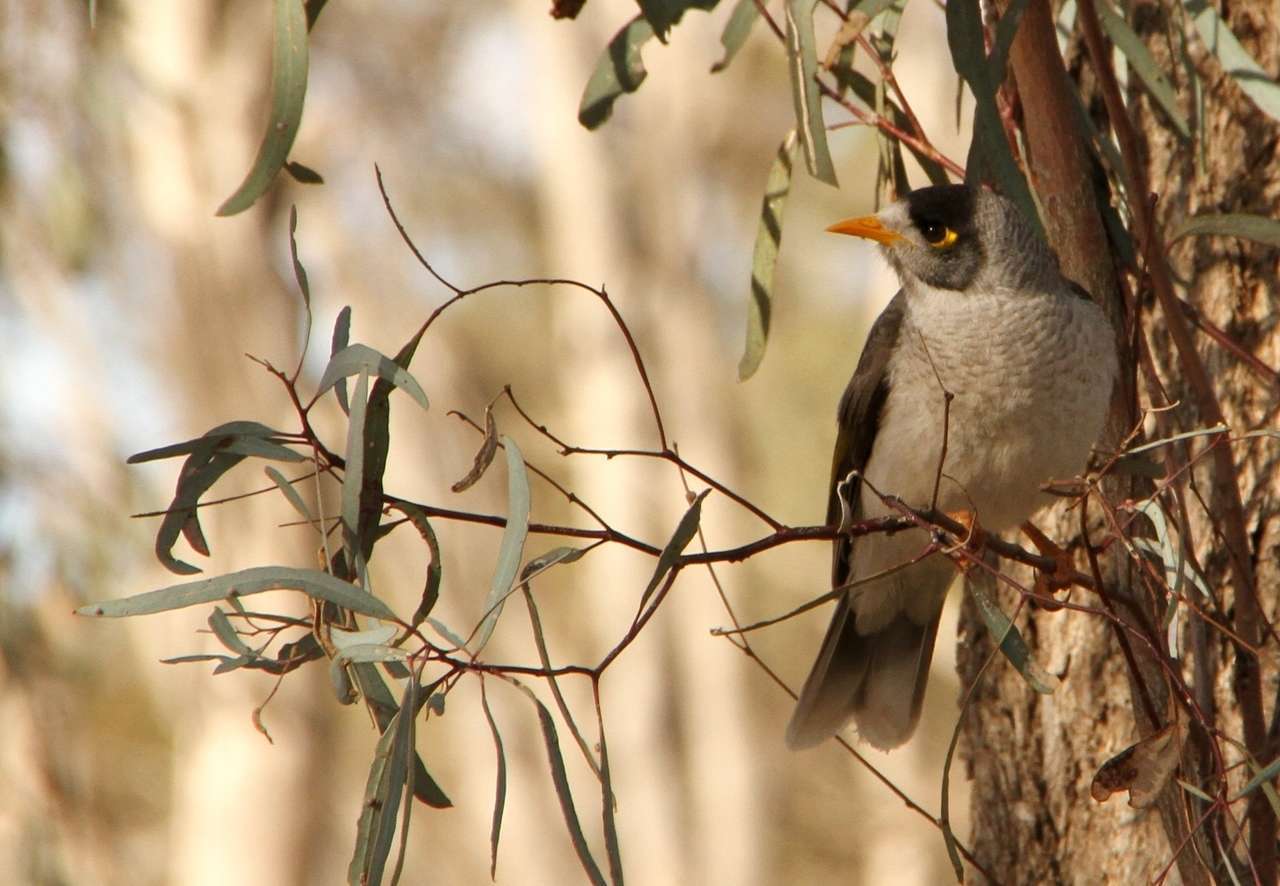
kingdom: Animalia
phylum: Chordata
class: Aves
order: Passeriformes
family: Meliphagidae
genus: Manorina
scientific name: Manorina melanocephala
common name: Noisy miner
